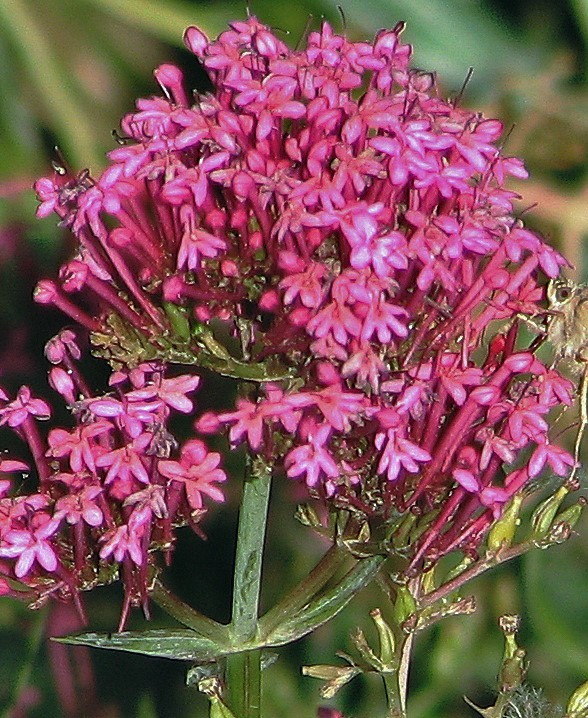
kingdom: Plantae
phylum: Tracheophyta
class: Magnoliopsida
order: Dipsacales
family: Caprifoliaceae
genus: Centranthus
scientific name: Centranthus ruber
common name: Red valerian
